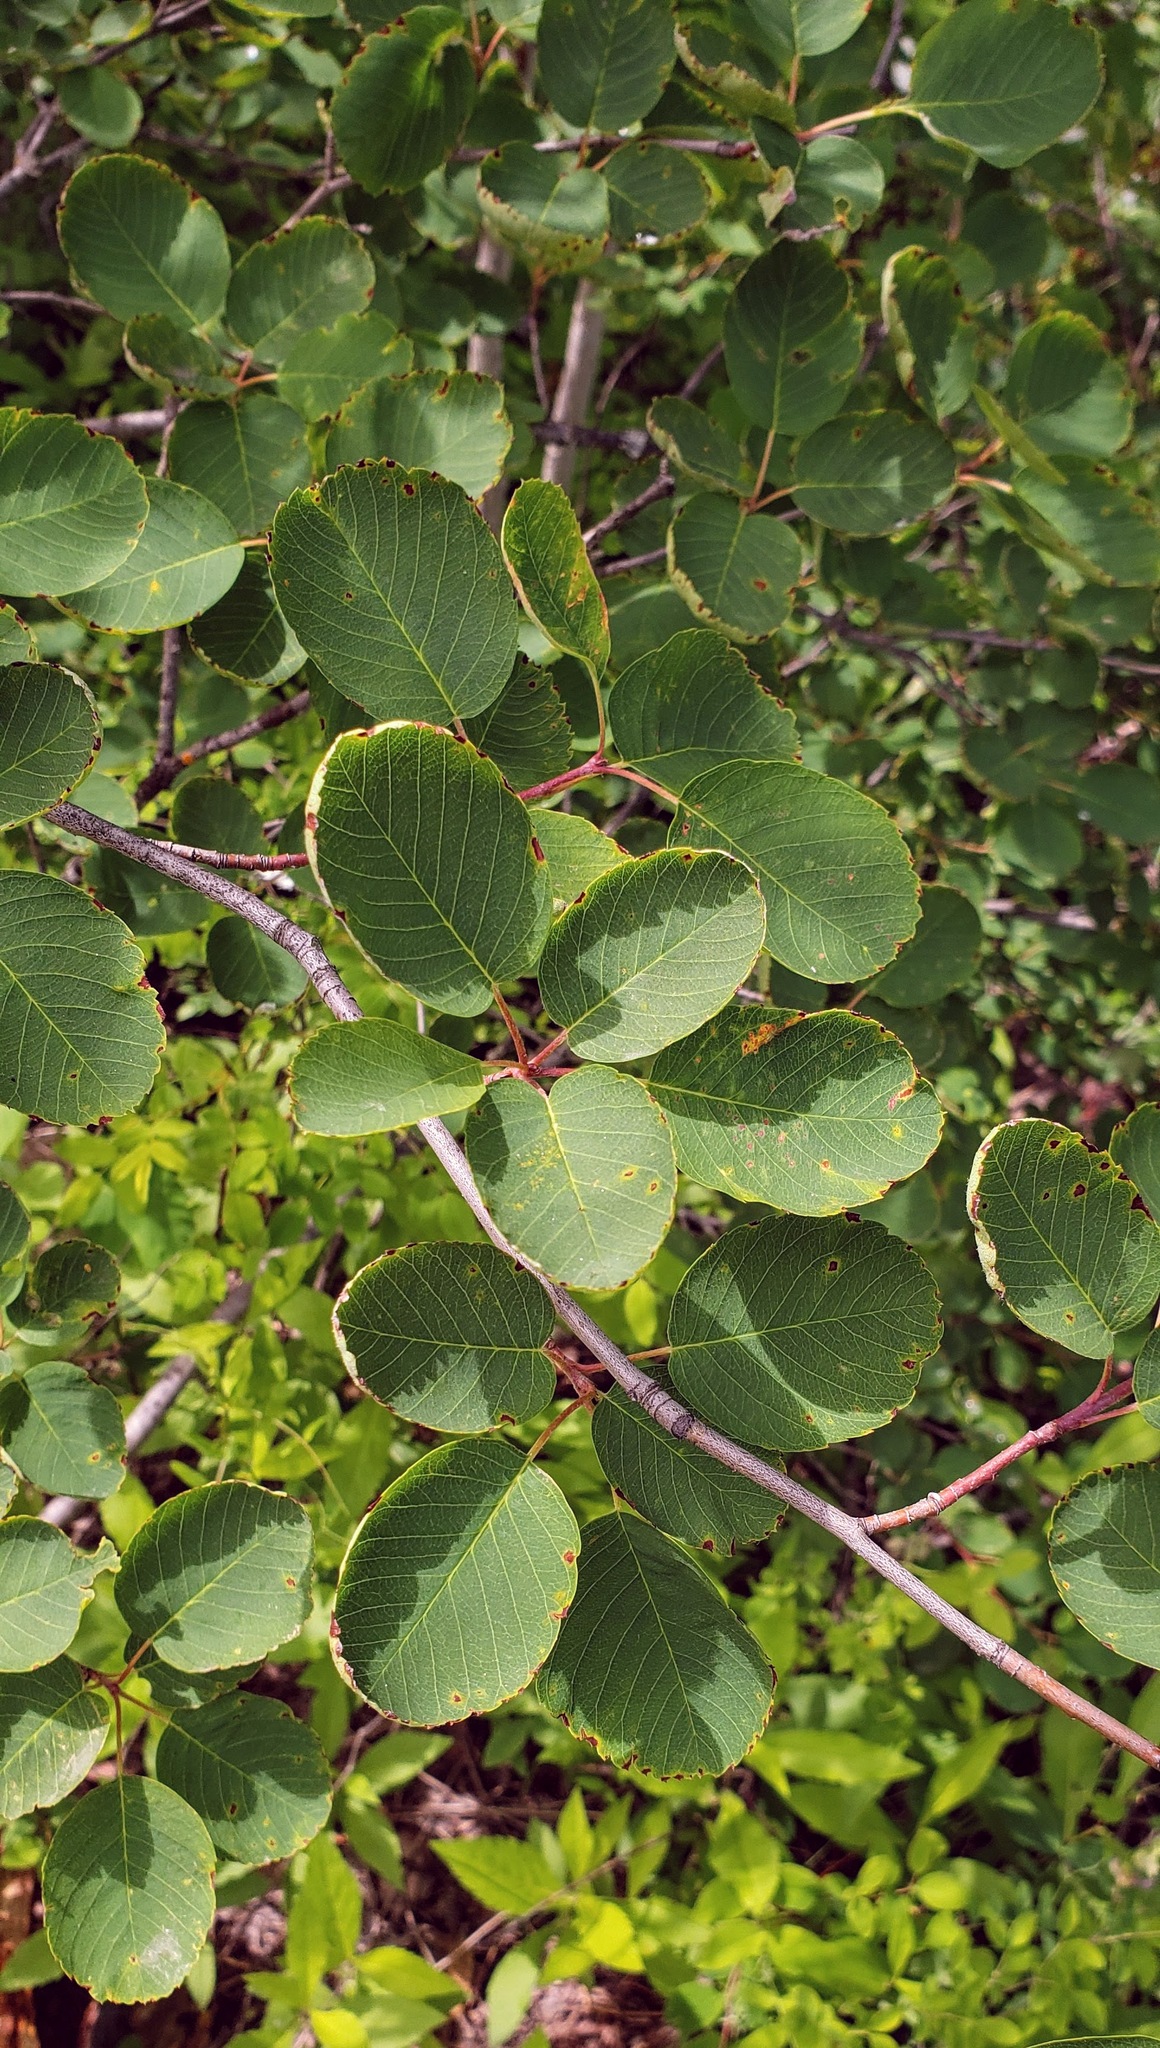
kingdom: Plantae
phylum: Tracheophyta
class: Magnoliopsida
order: Rosales
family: Rosaceae
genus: Amelanchier
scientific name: Amelanchier alnifolia
